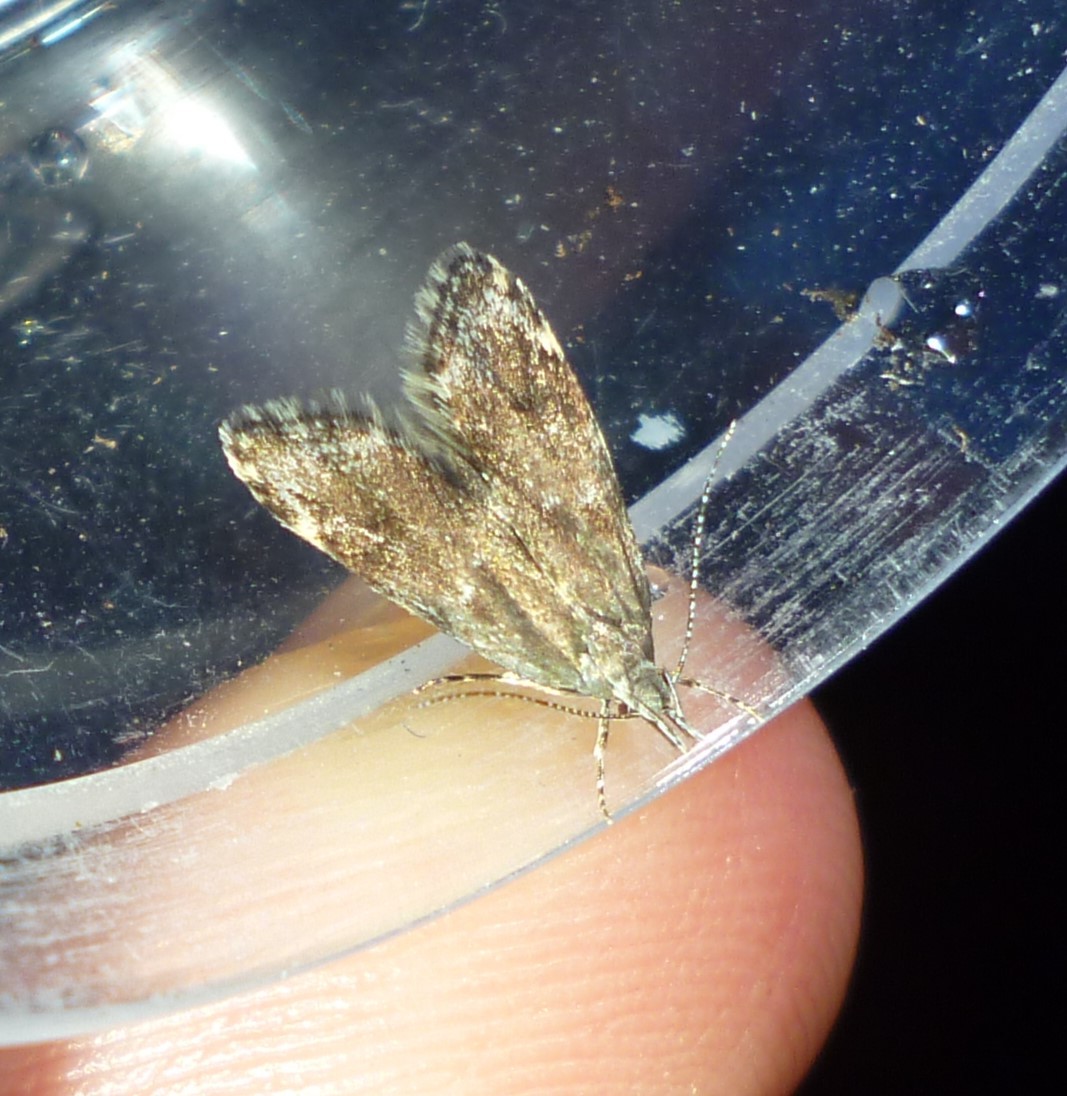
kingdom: Animalia
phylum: Arthropoda
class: Insecta
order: Lepidoptera
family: Oecophoridae
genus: Eido
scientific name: Eido trimaculella
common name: Three-spotted concealer
